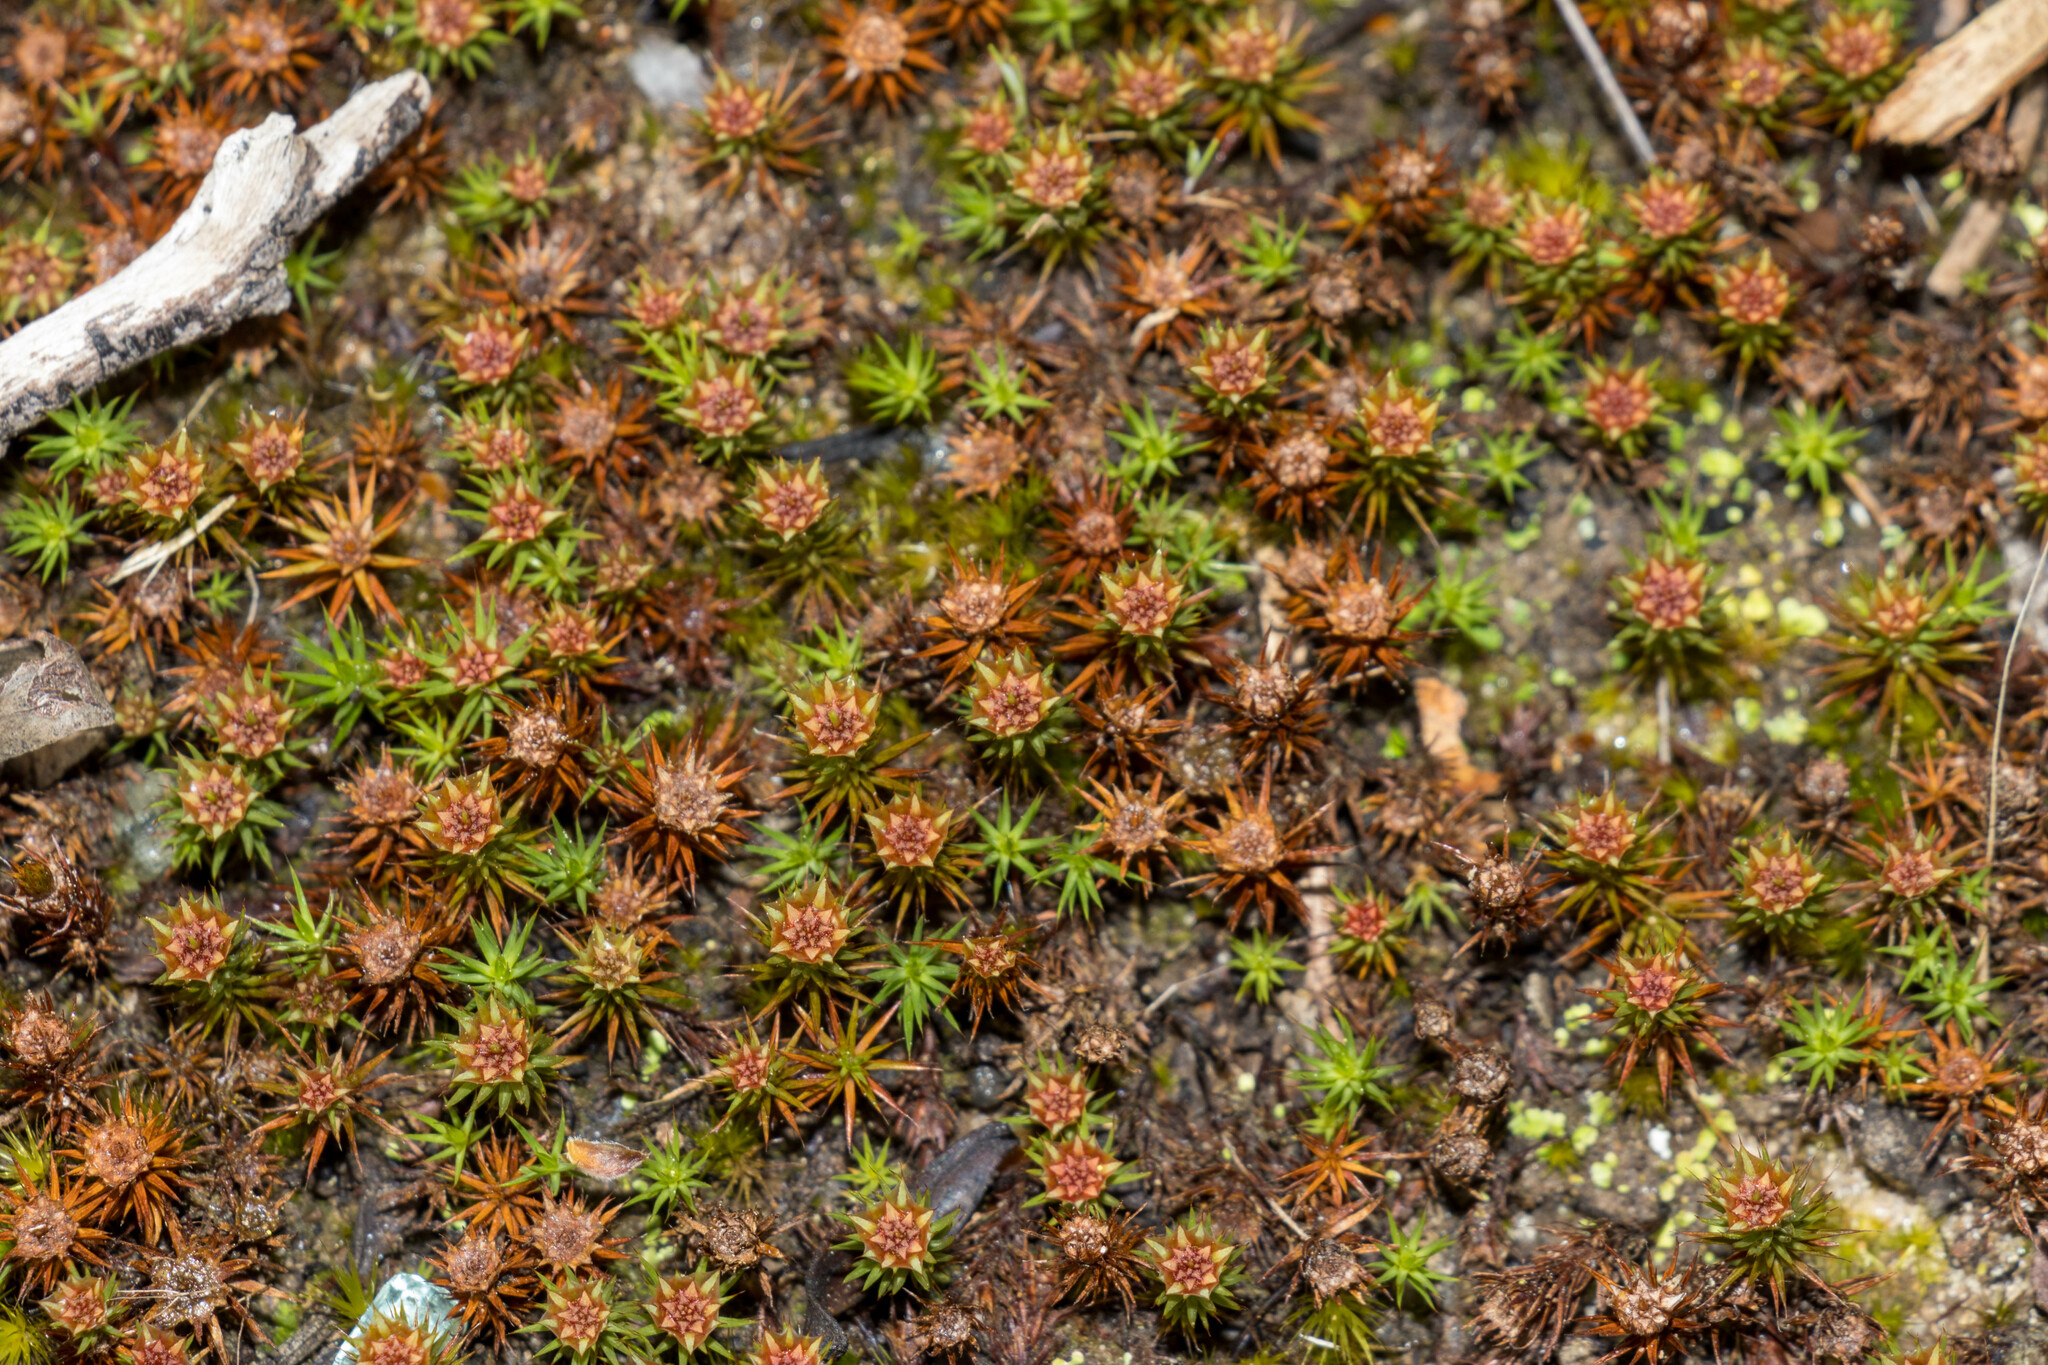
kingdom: Plantae
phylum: Bryophyta
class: Polytrichopsida
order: Polytrichales
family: Polytrichaceae
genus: Polytrichum
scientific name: Polytrichum juniperinum
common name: Juniper haircap moss
